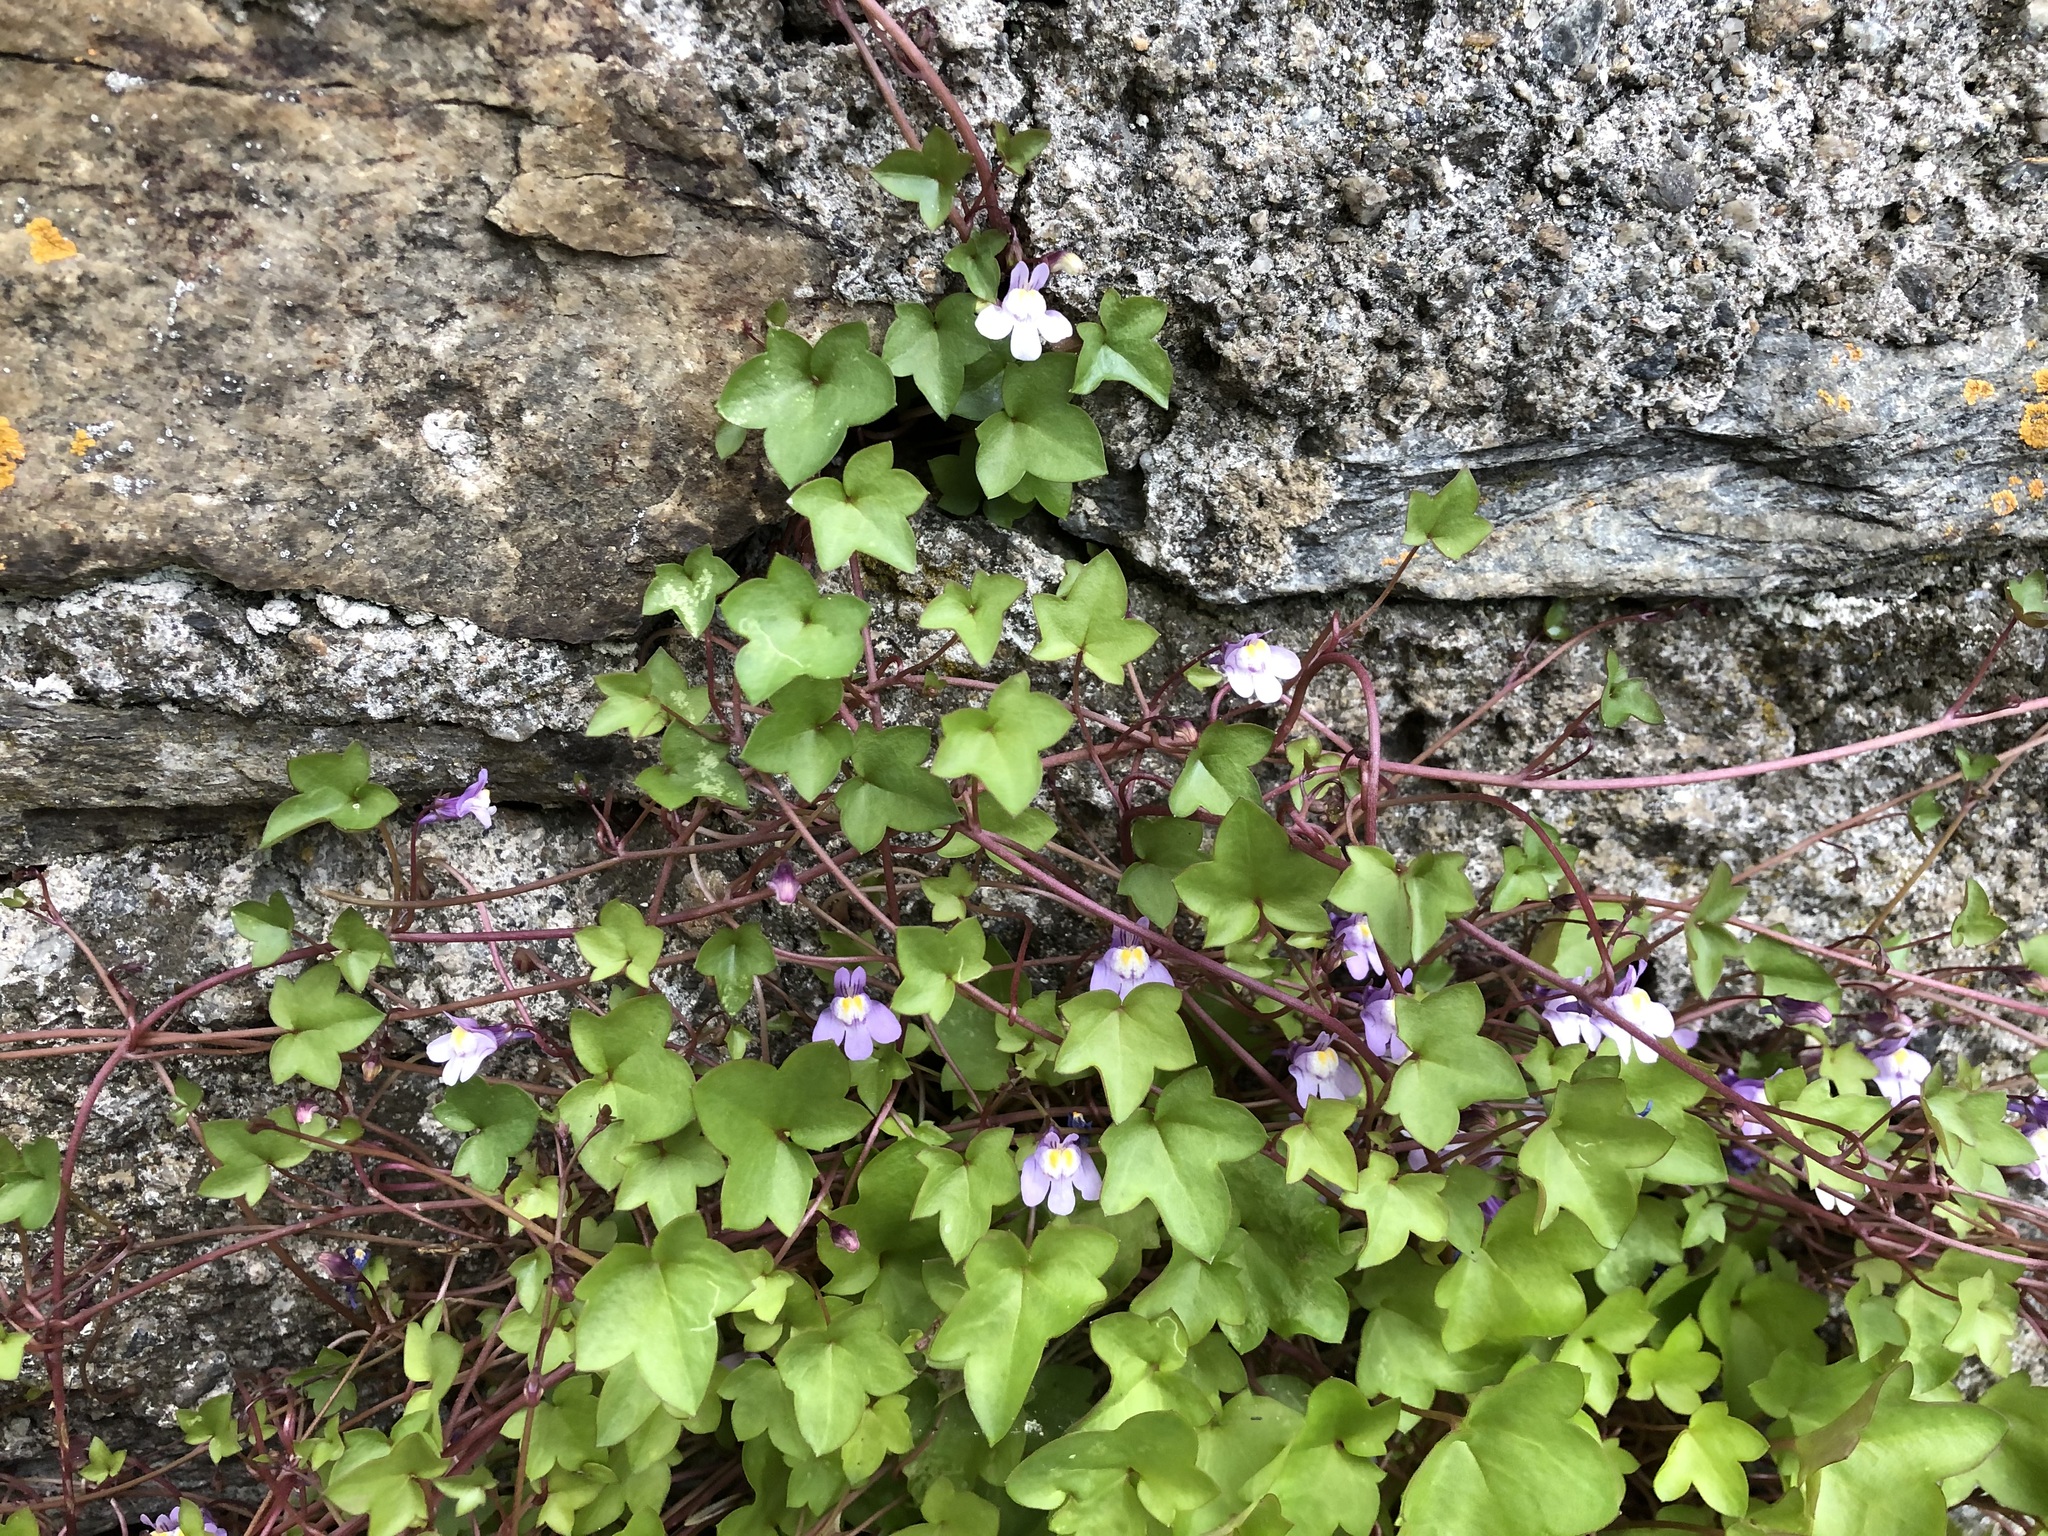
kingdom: Plantae
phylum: Tracheophyta
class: Magnoliopsida
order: Lamiales
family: Plantaginaceae
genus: Cymbalaria
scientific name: Cymbalaria muralis
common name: Ivy-leaved toadflax
